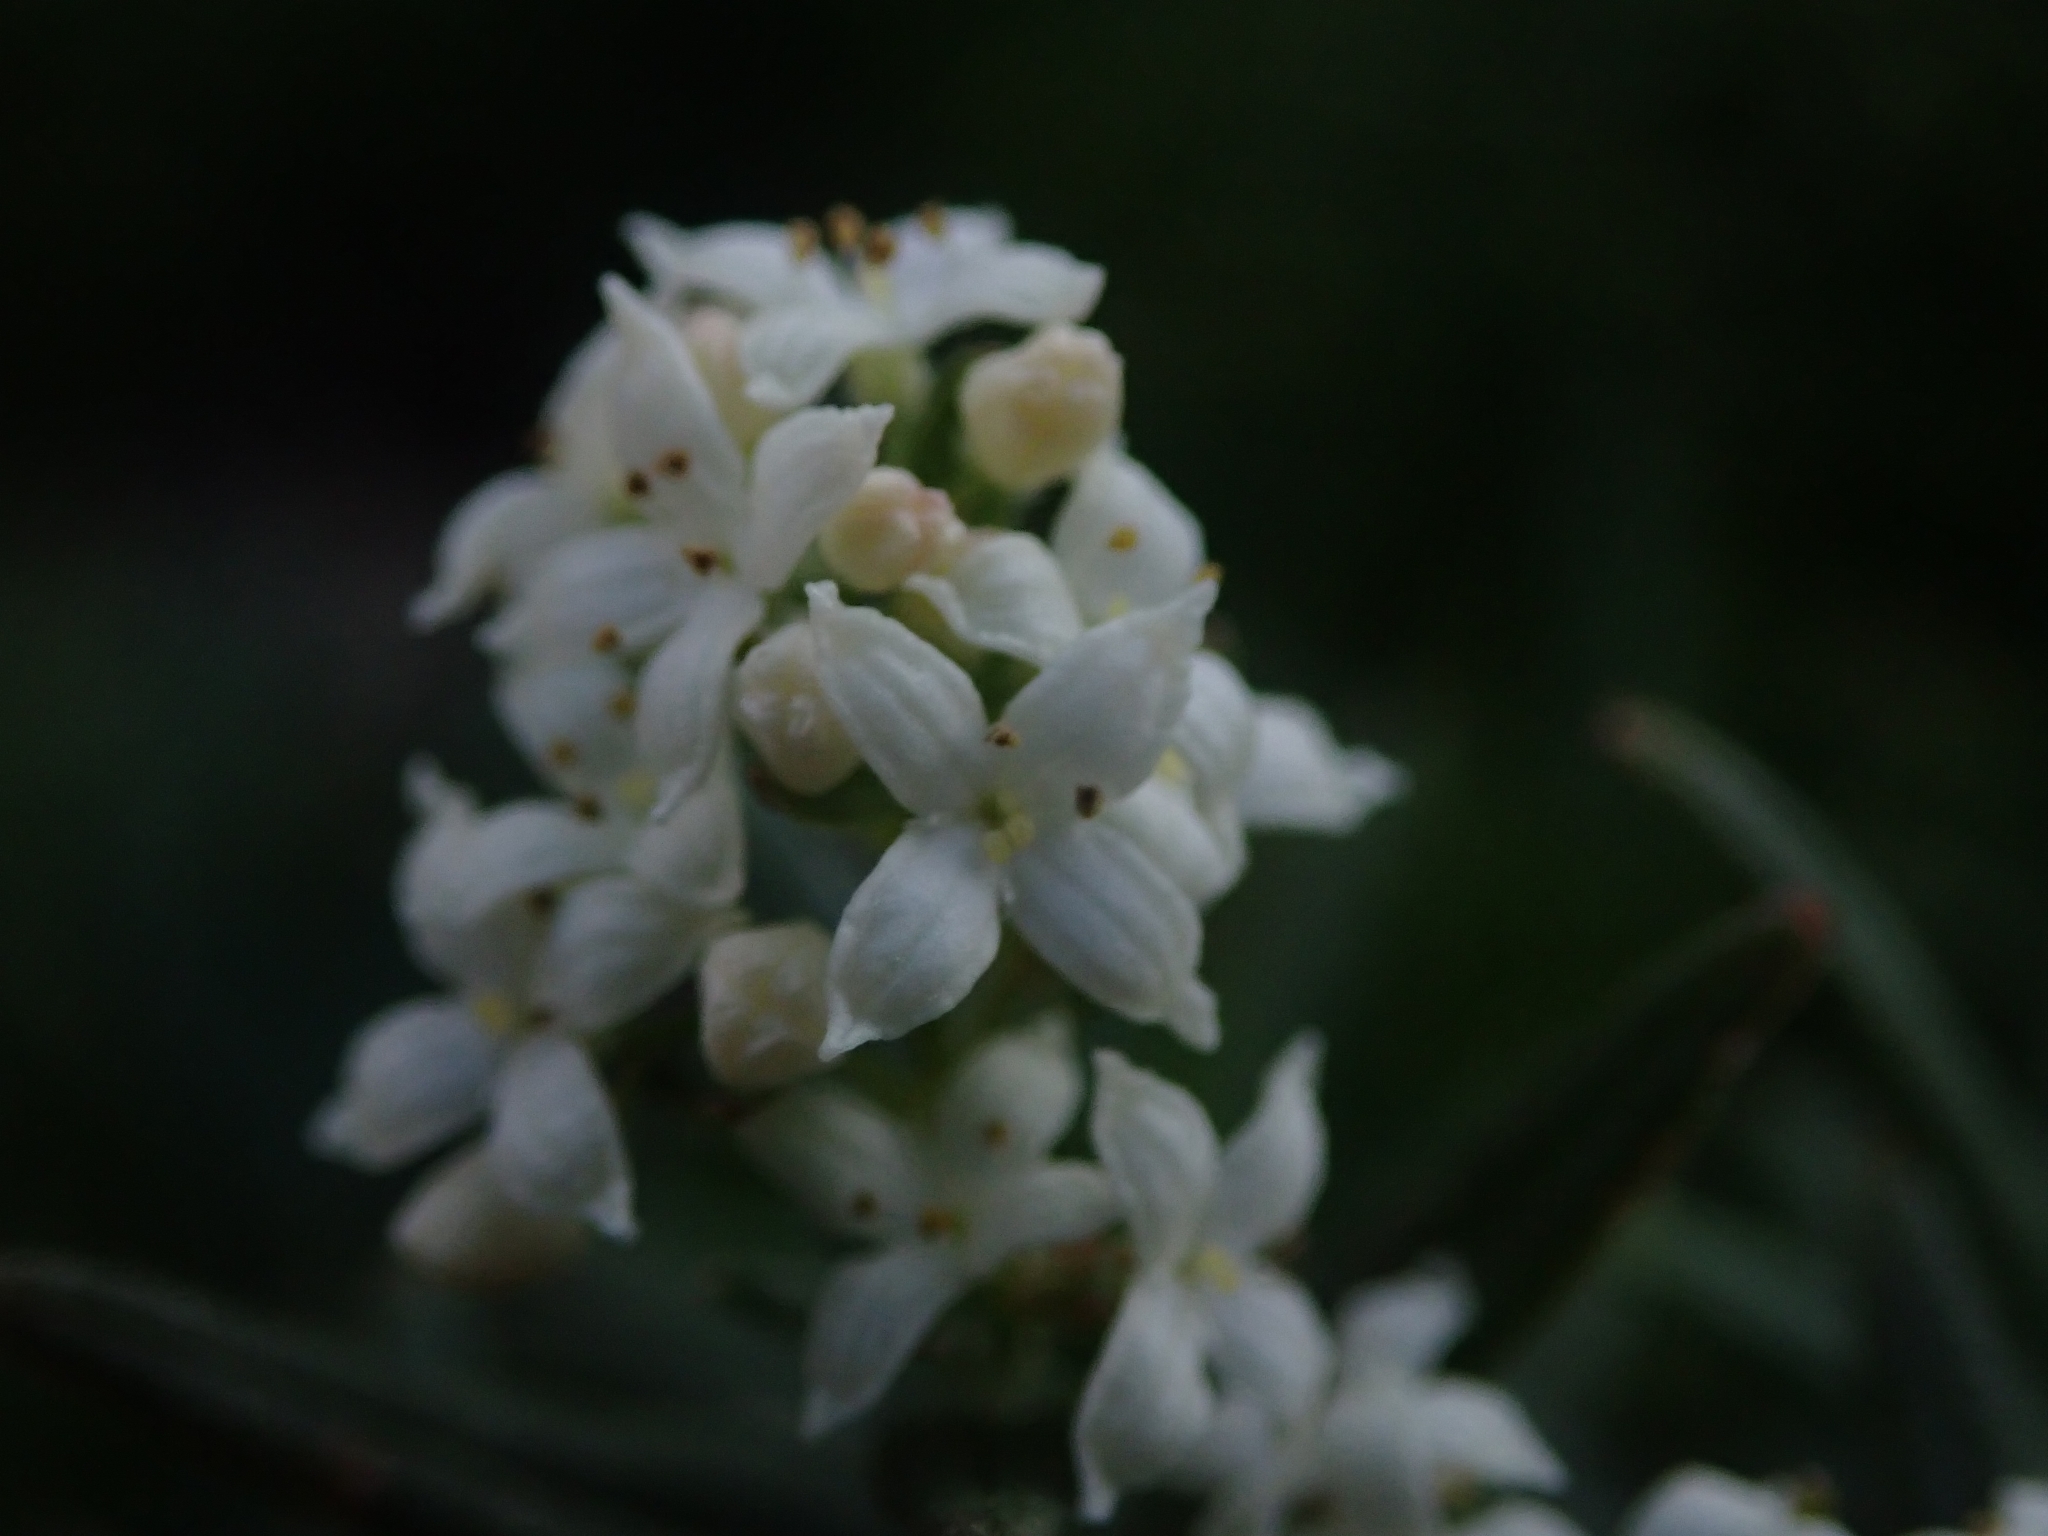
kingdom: Plantae
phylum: Tracheophyta
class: Magnoliopsida
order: Gentianales
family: Rubiaceae
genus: Galium
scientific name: Galium boreale
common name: Northern bedstraw
